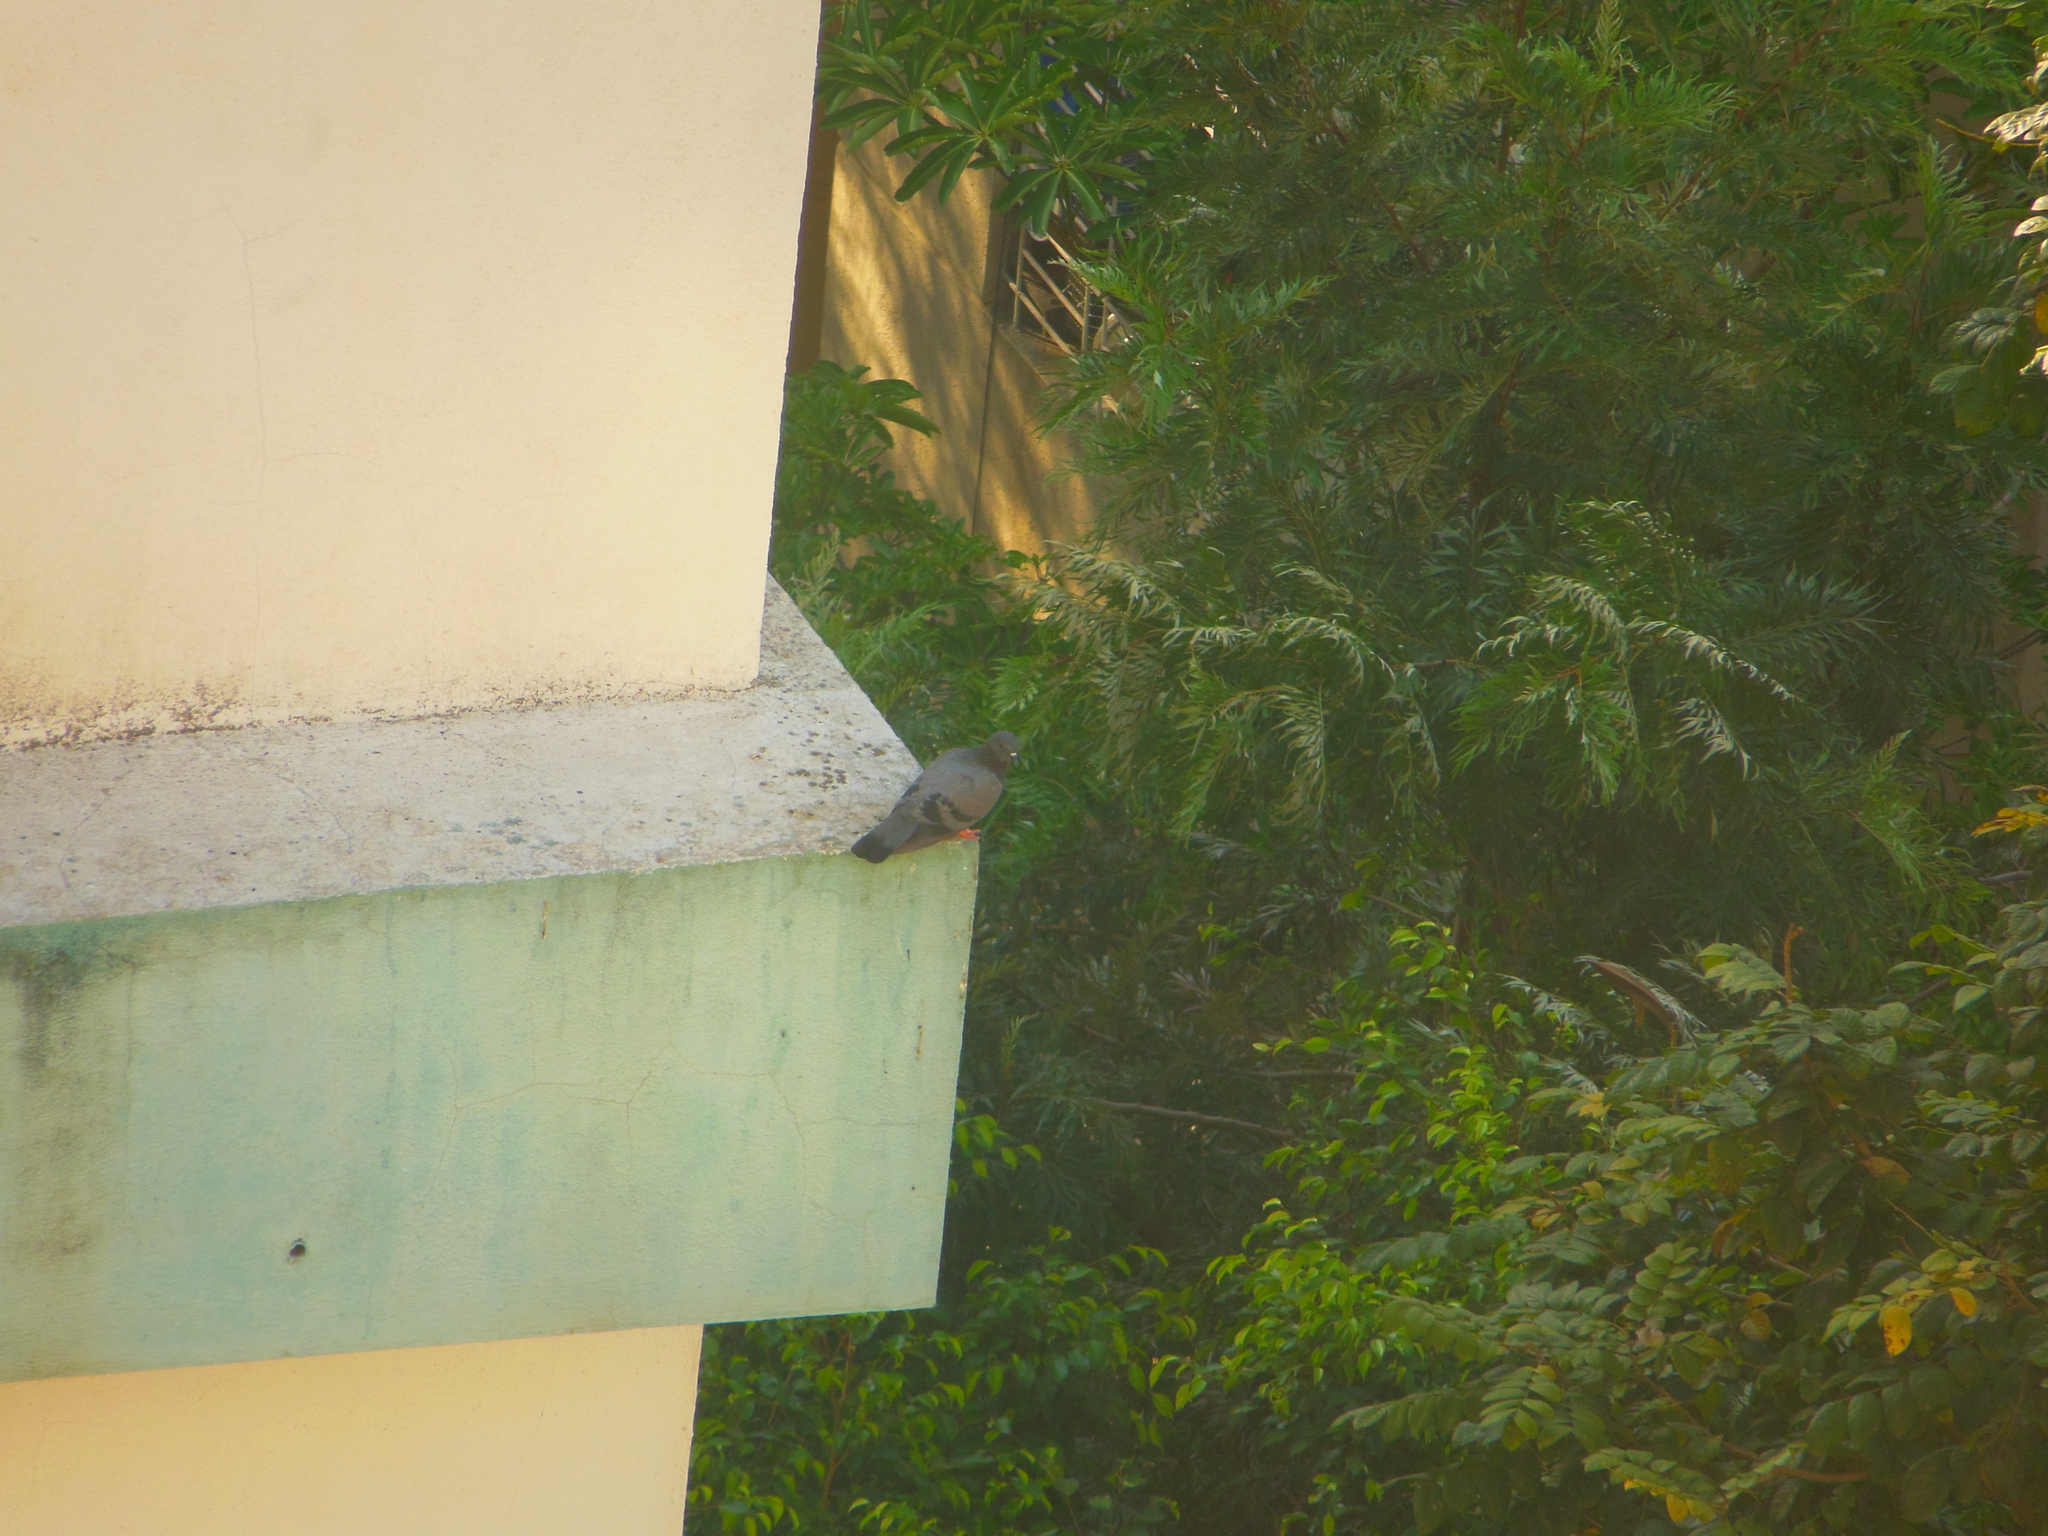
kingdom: Animalia
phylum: Chordata
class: Aves
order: Columbiformes
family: Columbidae
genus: Columba
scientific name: Columba livia
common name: Rock pigeon
